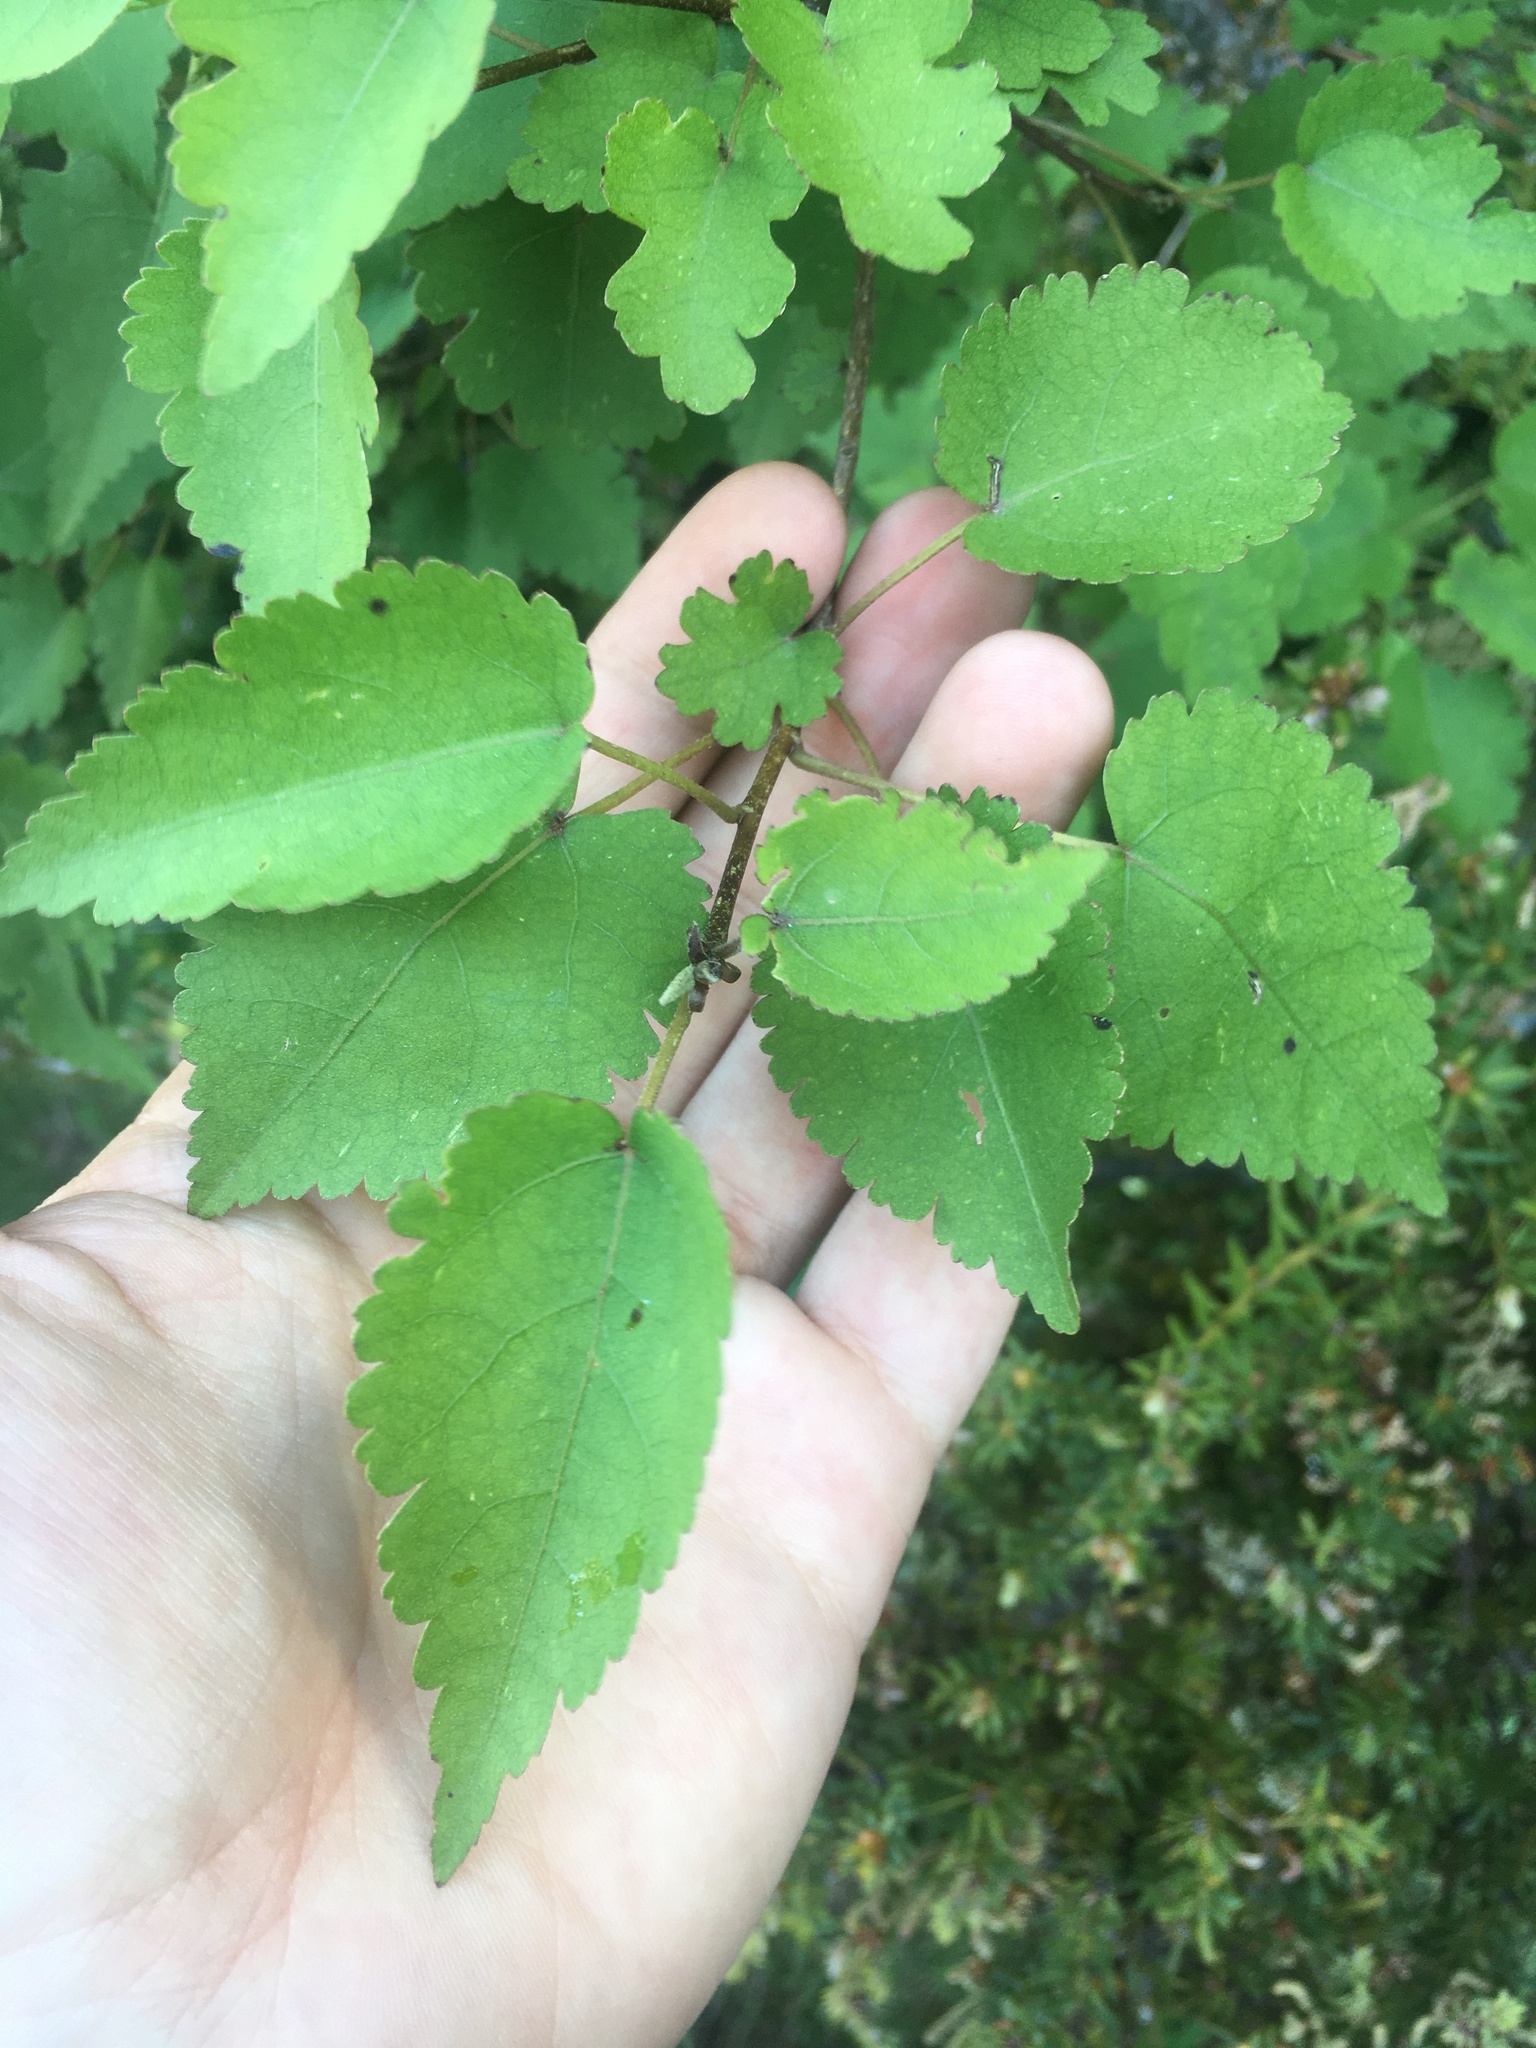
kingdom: Plantae
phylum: Tracheophyta
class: Magnoliopsida
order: Malvales
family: Malvaceae
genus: Hoheria
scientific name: Hoheria glabrata
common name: Mountain-ribbon
